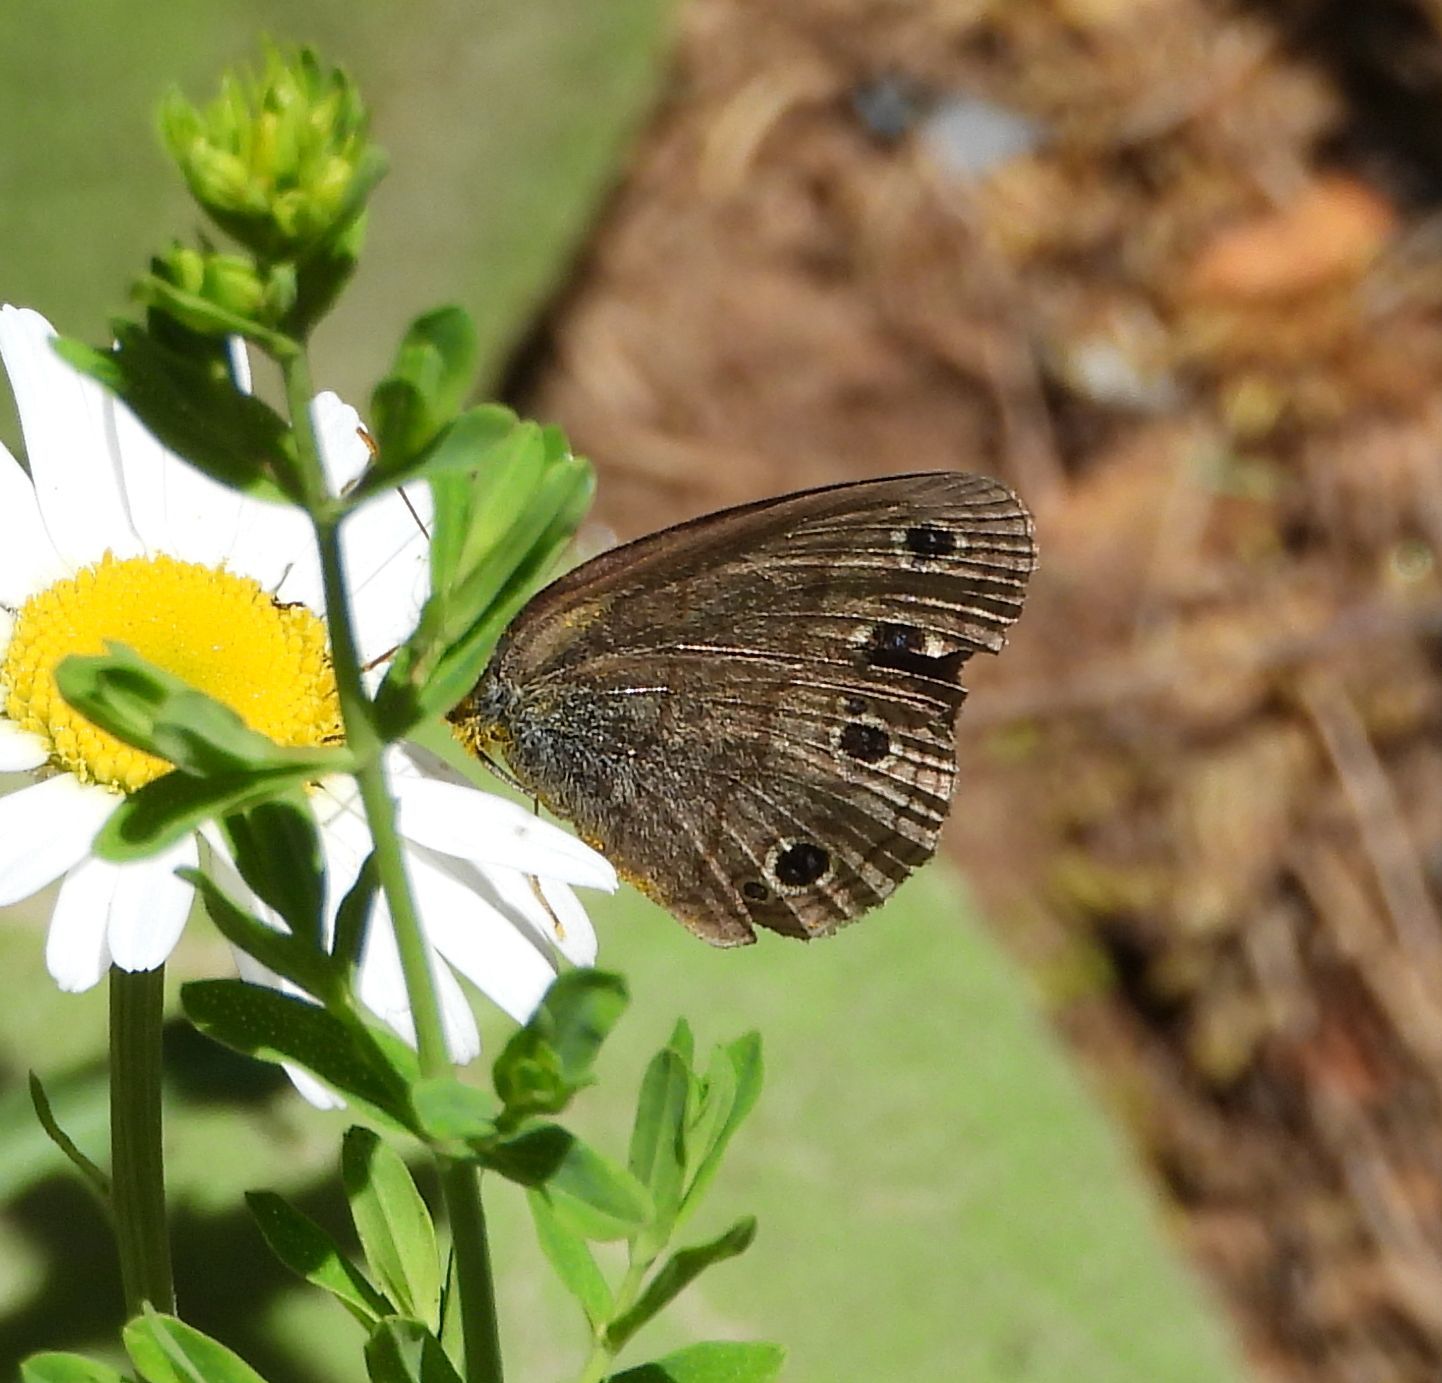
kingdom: Animalia
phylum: Arthropoda
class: Insecta
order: Lepidoptera
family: Nymphalidae
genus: Euptychia
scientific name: Euptychia cymela
